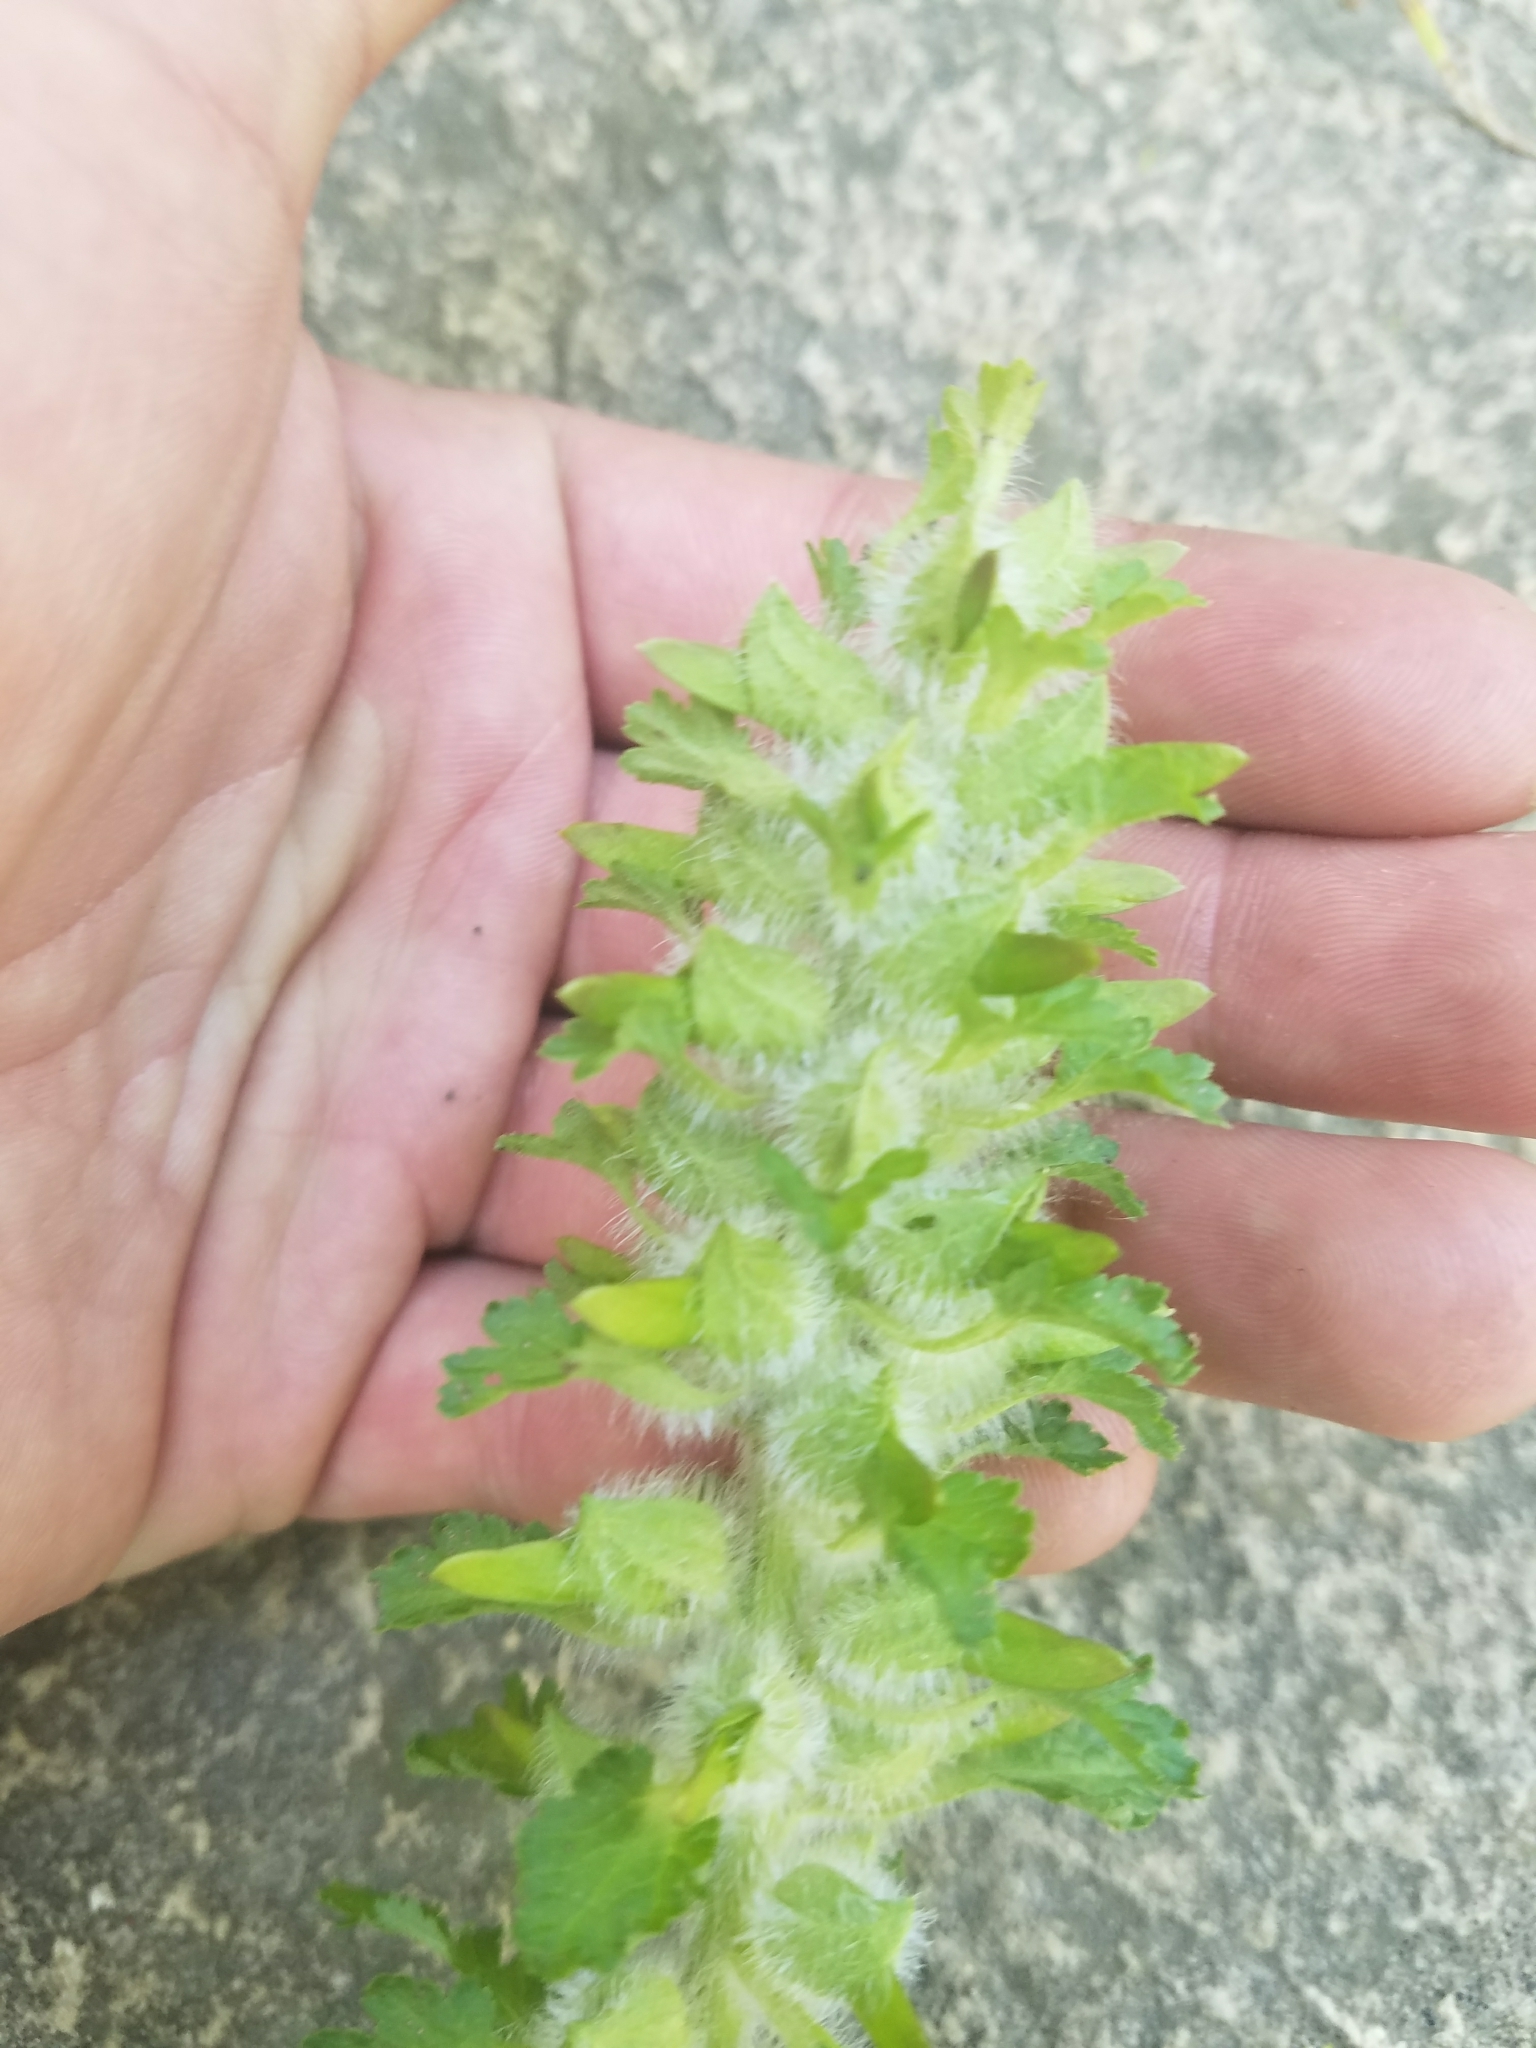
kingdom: Plantae
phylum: Tracheophyta
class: Magnoliopsida
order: Lamiales
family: Orobanchaceae
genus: Pedicularis
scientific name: Pedicularis canadensis
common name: Early lousewort
